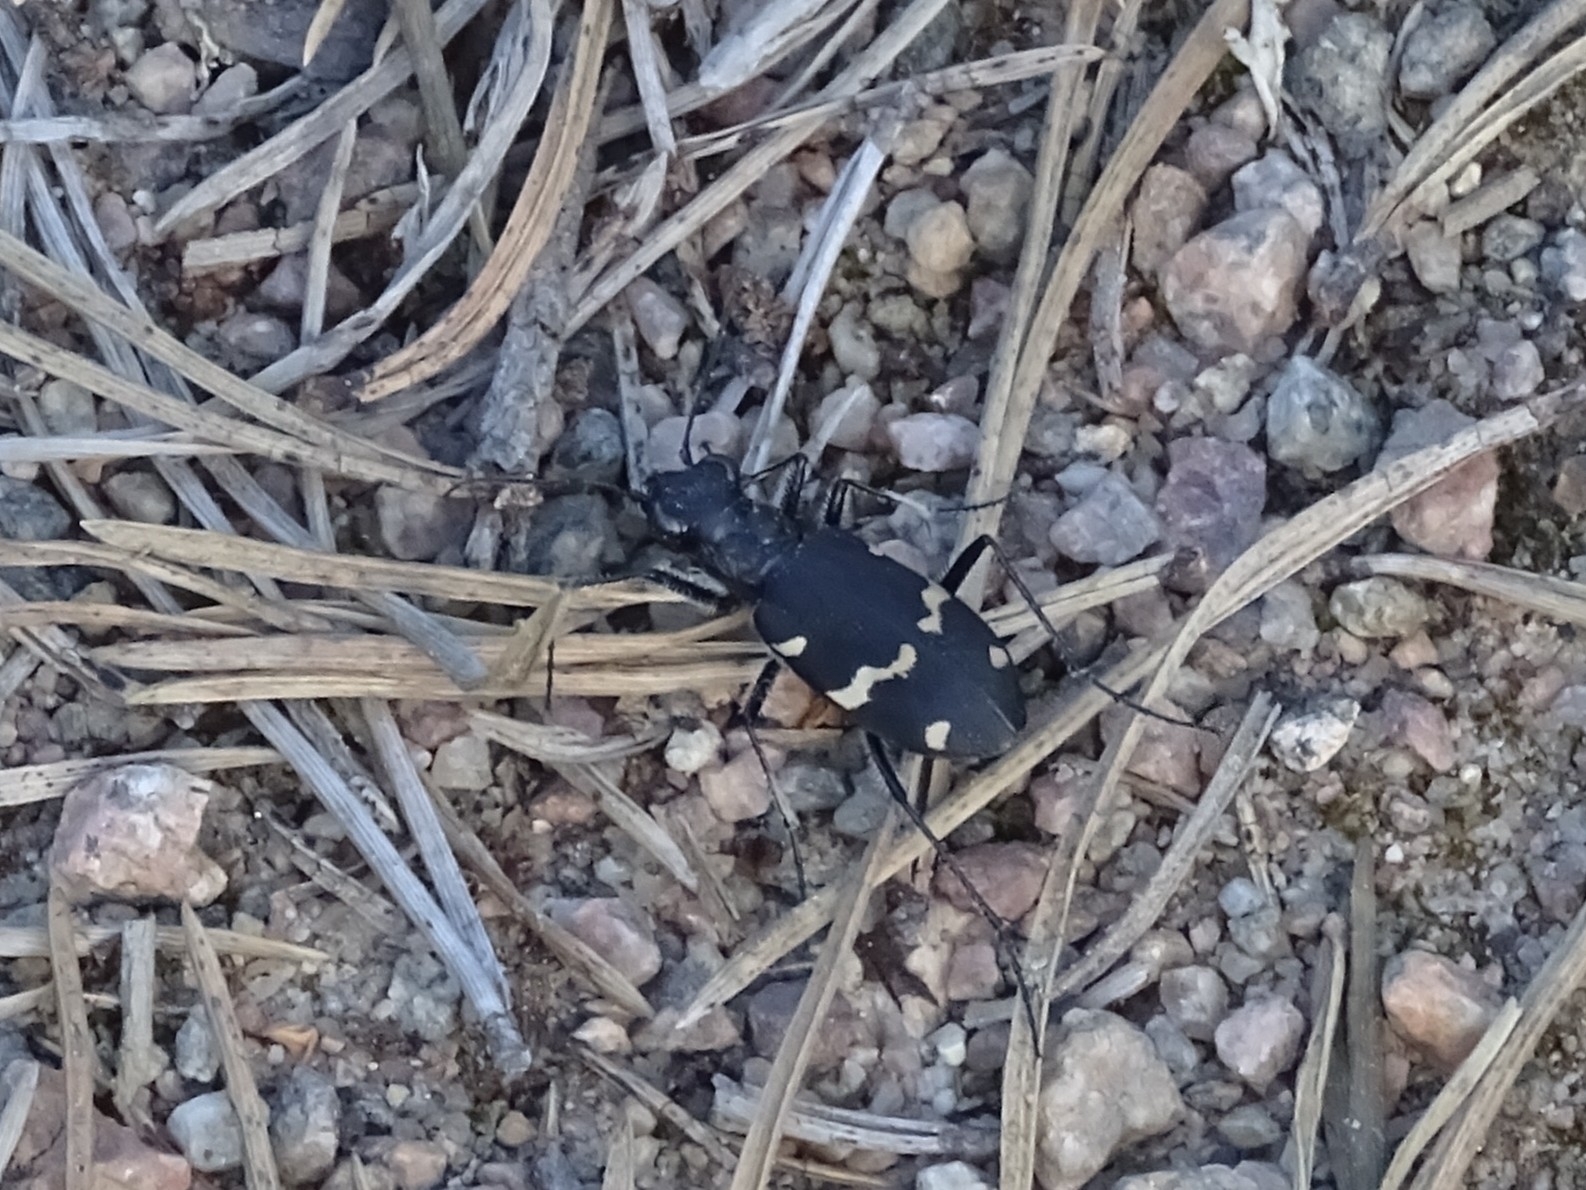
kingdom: Animalia
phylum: Arthropoda
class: Insecta
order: Coleoptera
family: Carabidae
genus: Cicindela
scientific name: Cicindela sylvatica
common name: Heath tiger beetle
